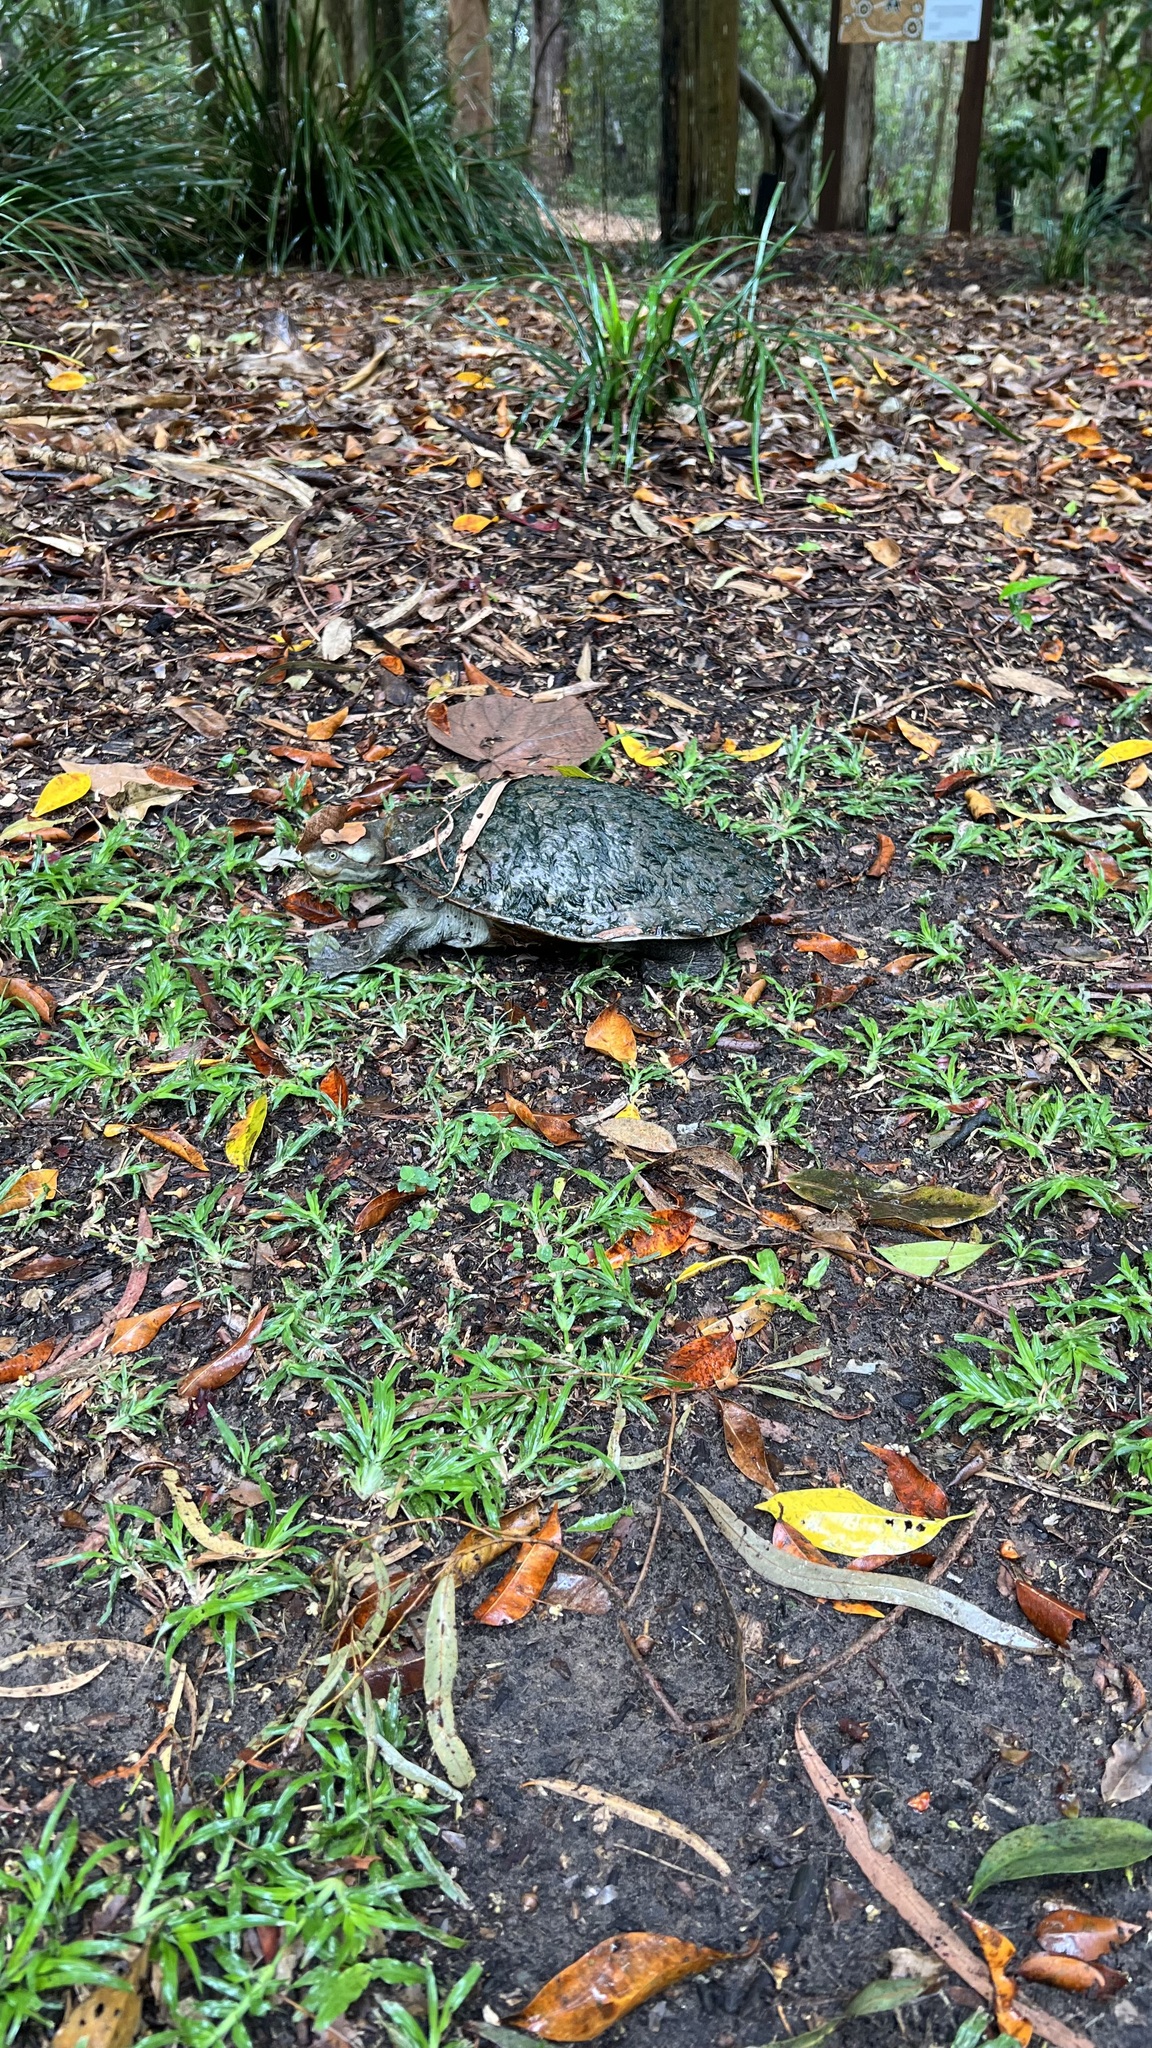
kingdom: Animalia
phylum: Chordata
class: Testudines
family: Chelidae
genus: Emydura
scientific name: Emydura macquarii
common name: Murray river turtle
